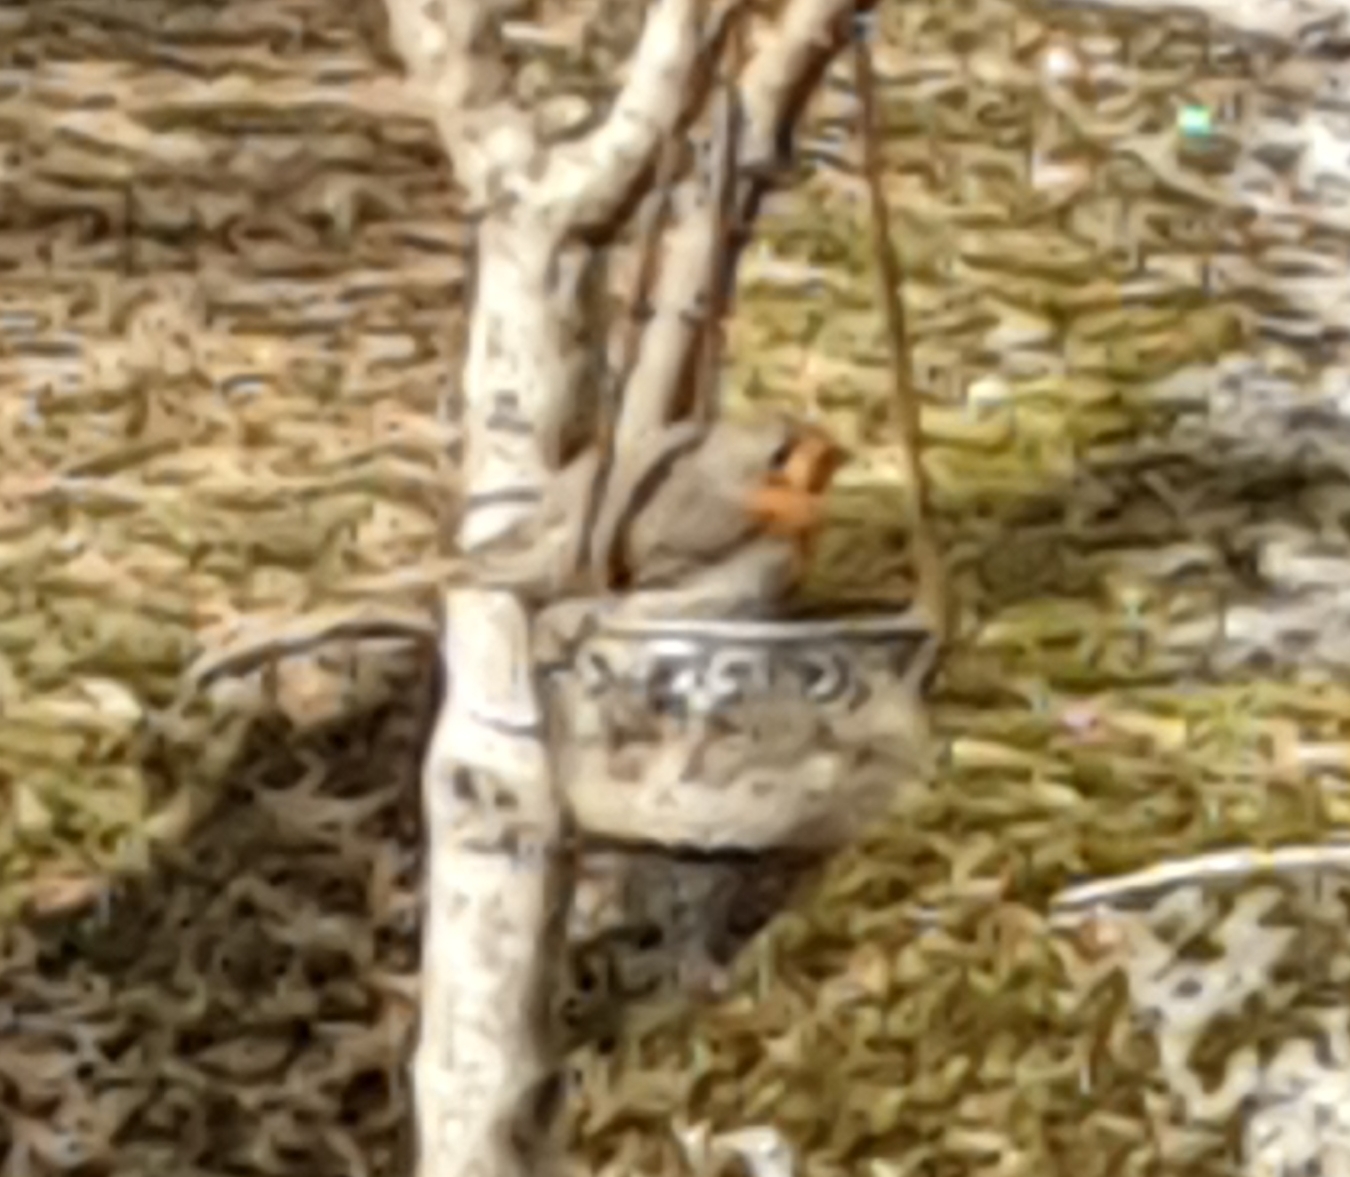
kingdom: Animalia
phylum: Chordata
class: Aves
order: Passeriformes
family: Muscicapidae
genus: Erithacus
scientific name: Erithacus rubecula
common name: European robin
